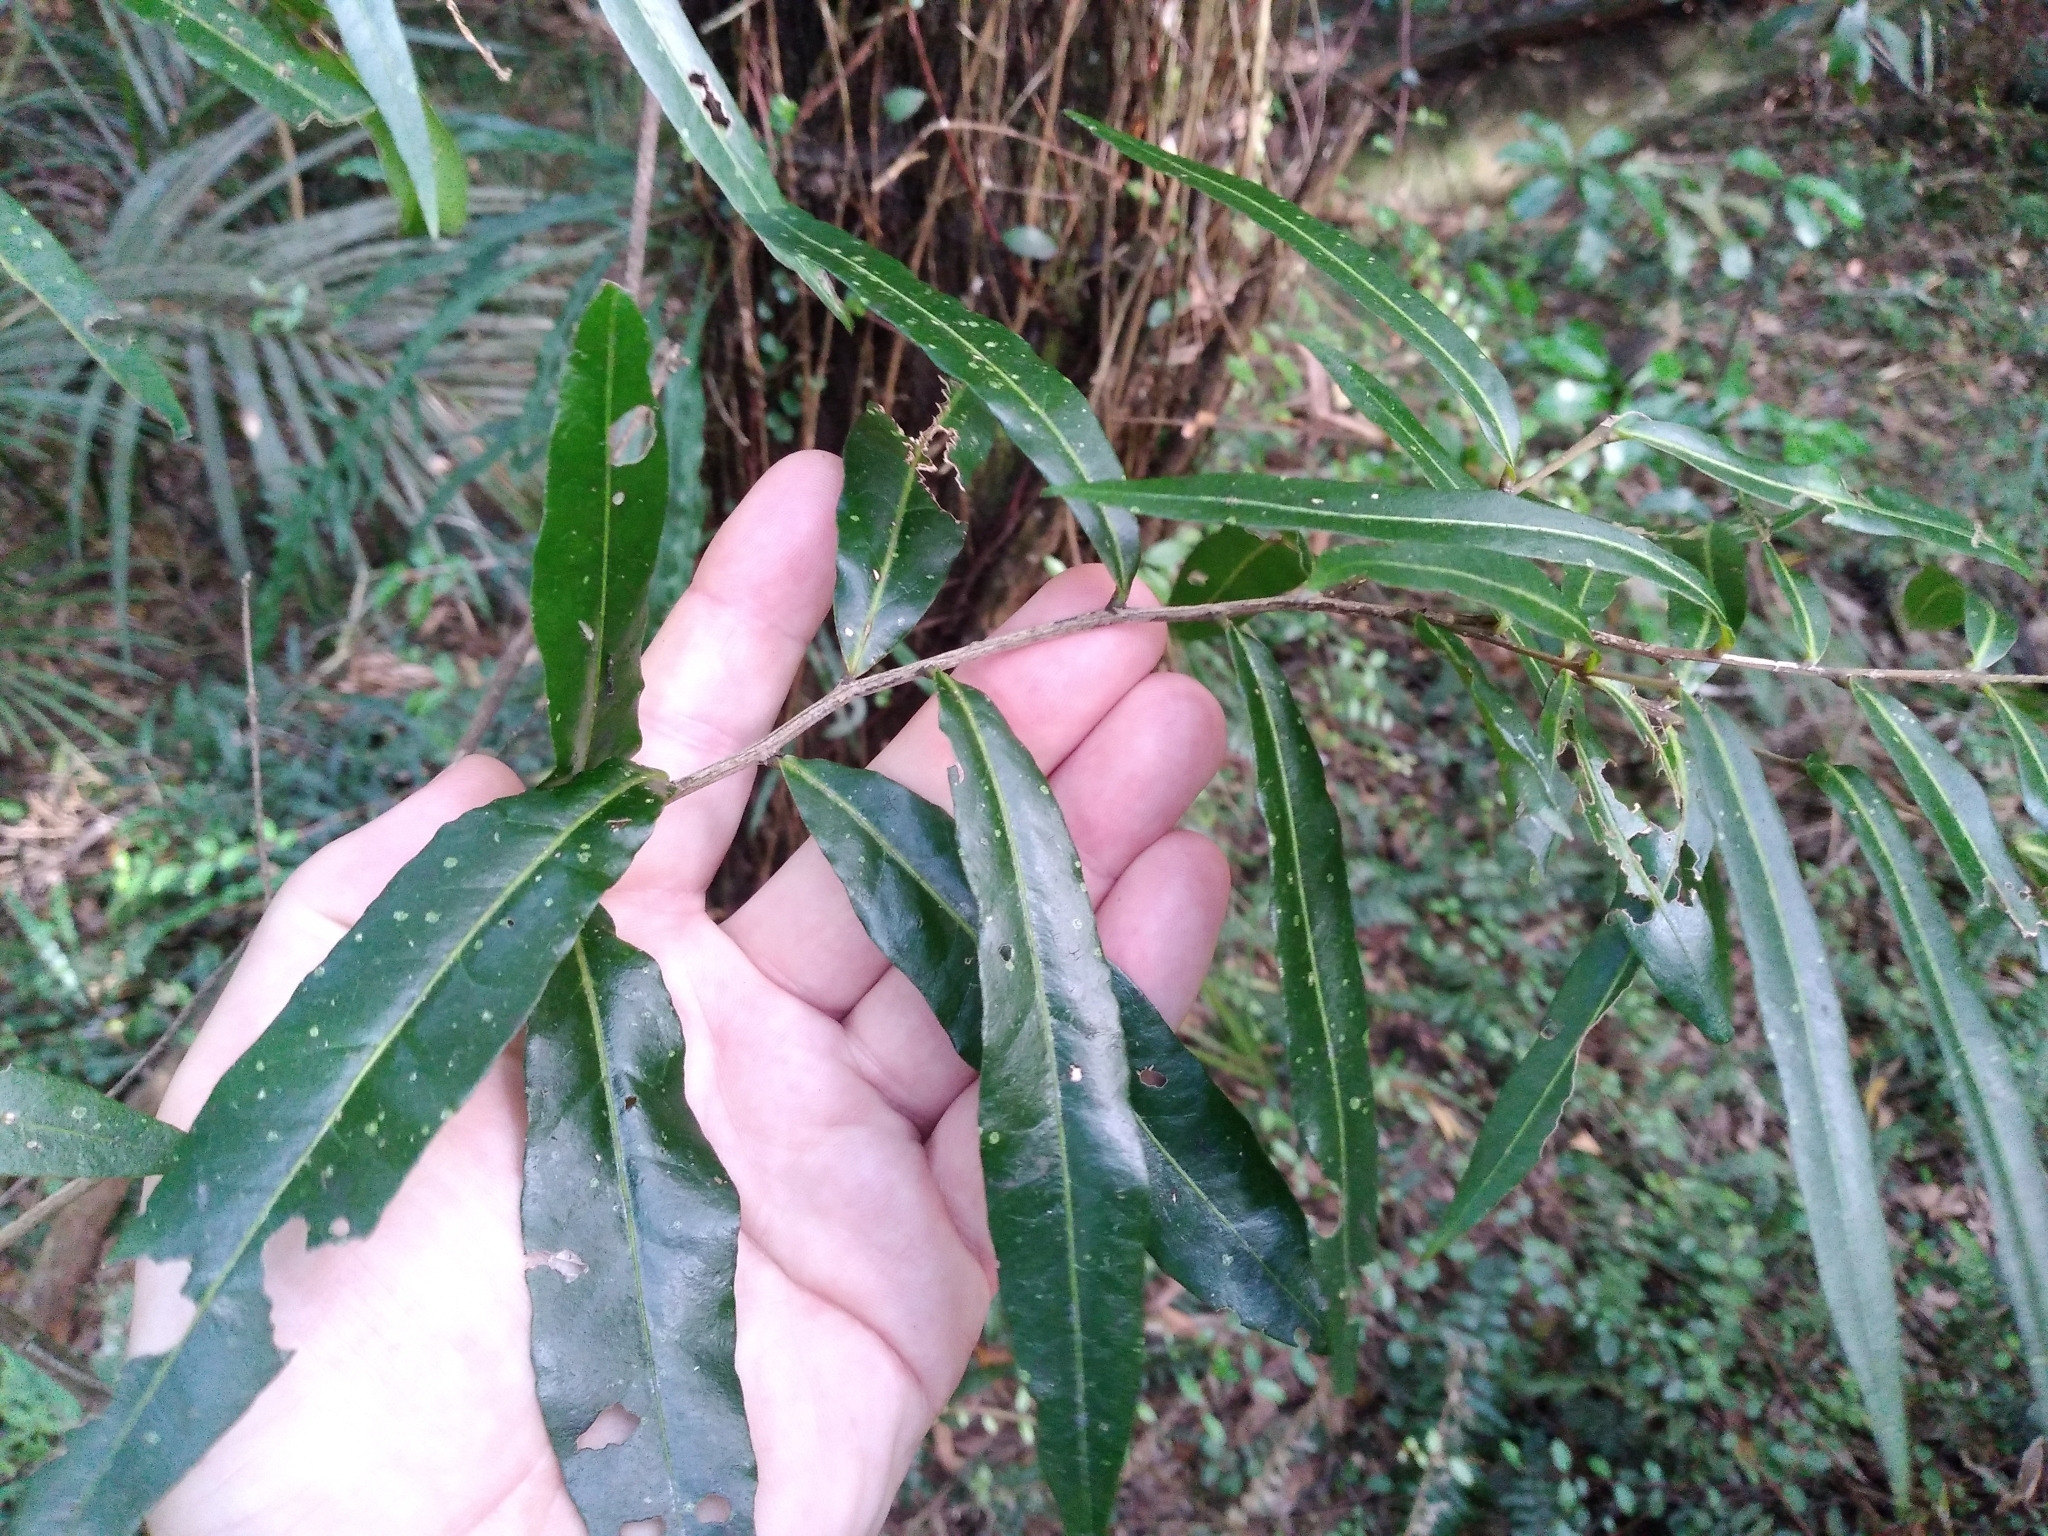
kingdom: Plantae
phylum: Tracheophyta
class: Magnoliopsida
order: Santalales
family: Nanodeaceae
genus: Mida
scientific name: Mida salicifolia
